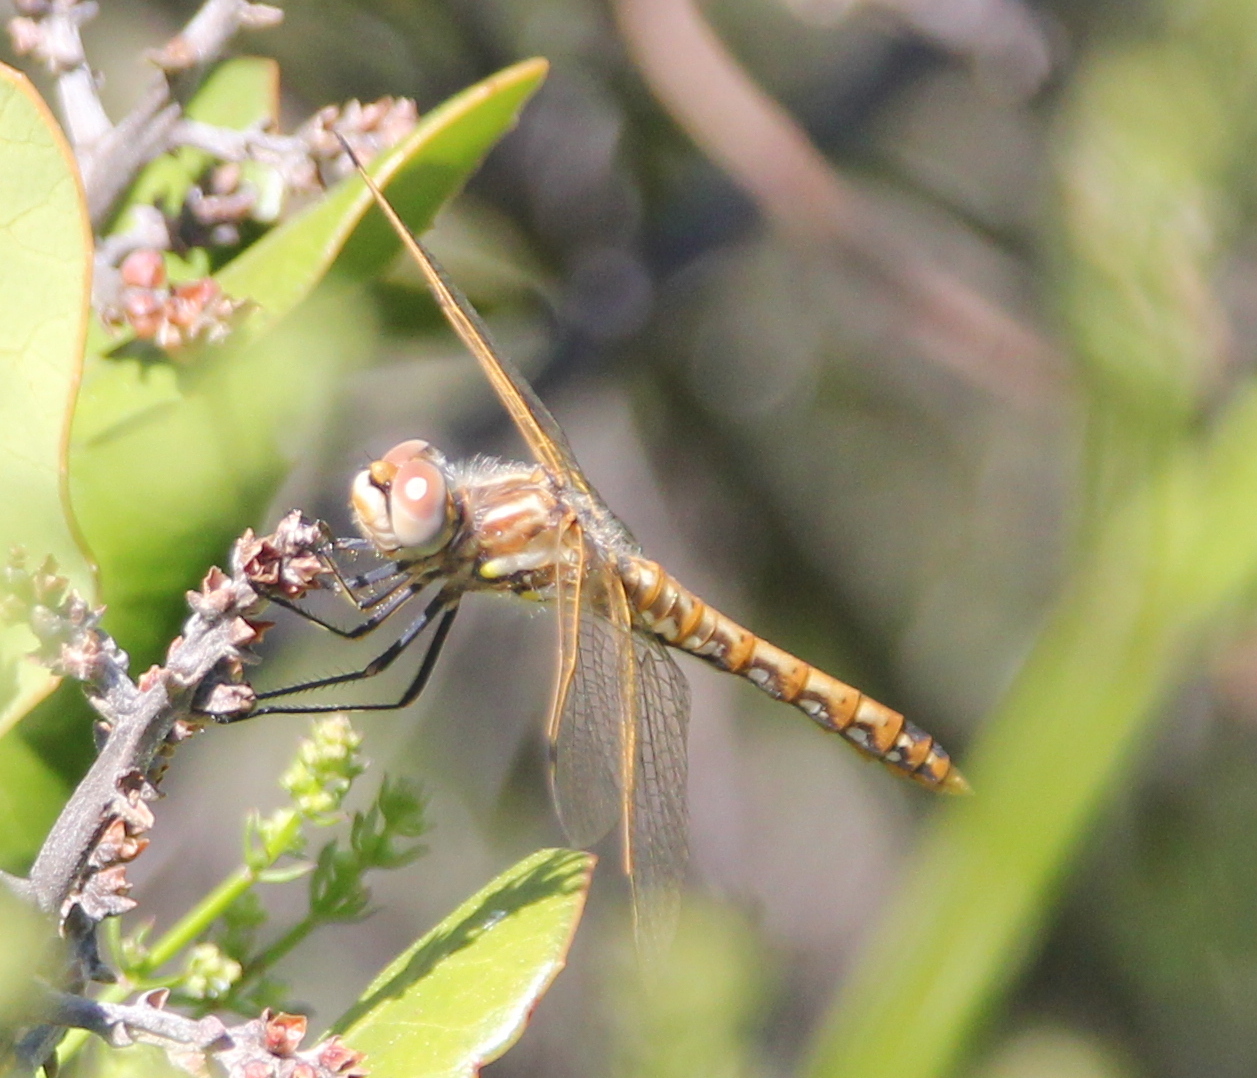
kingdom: Animalia
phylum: Arthropoda
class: Insecta
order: Odonata
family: Libellulidae
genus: Sympetrum
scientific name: Sympetrum corruptum
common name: Variegated meadowhawk
